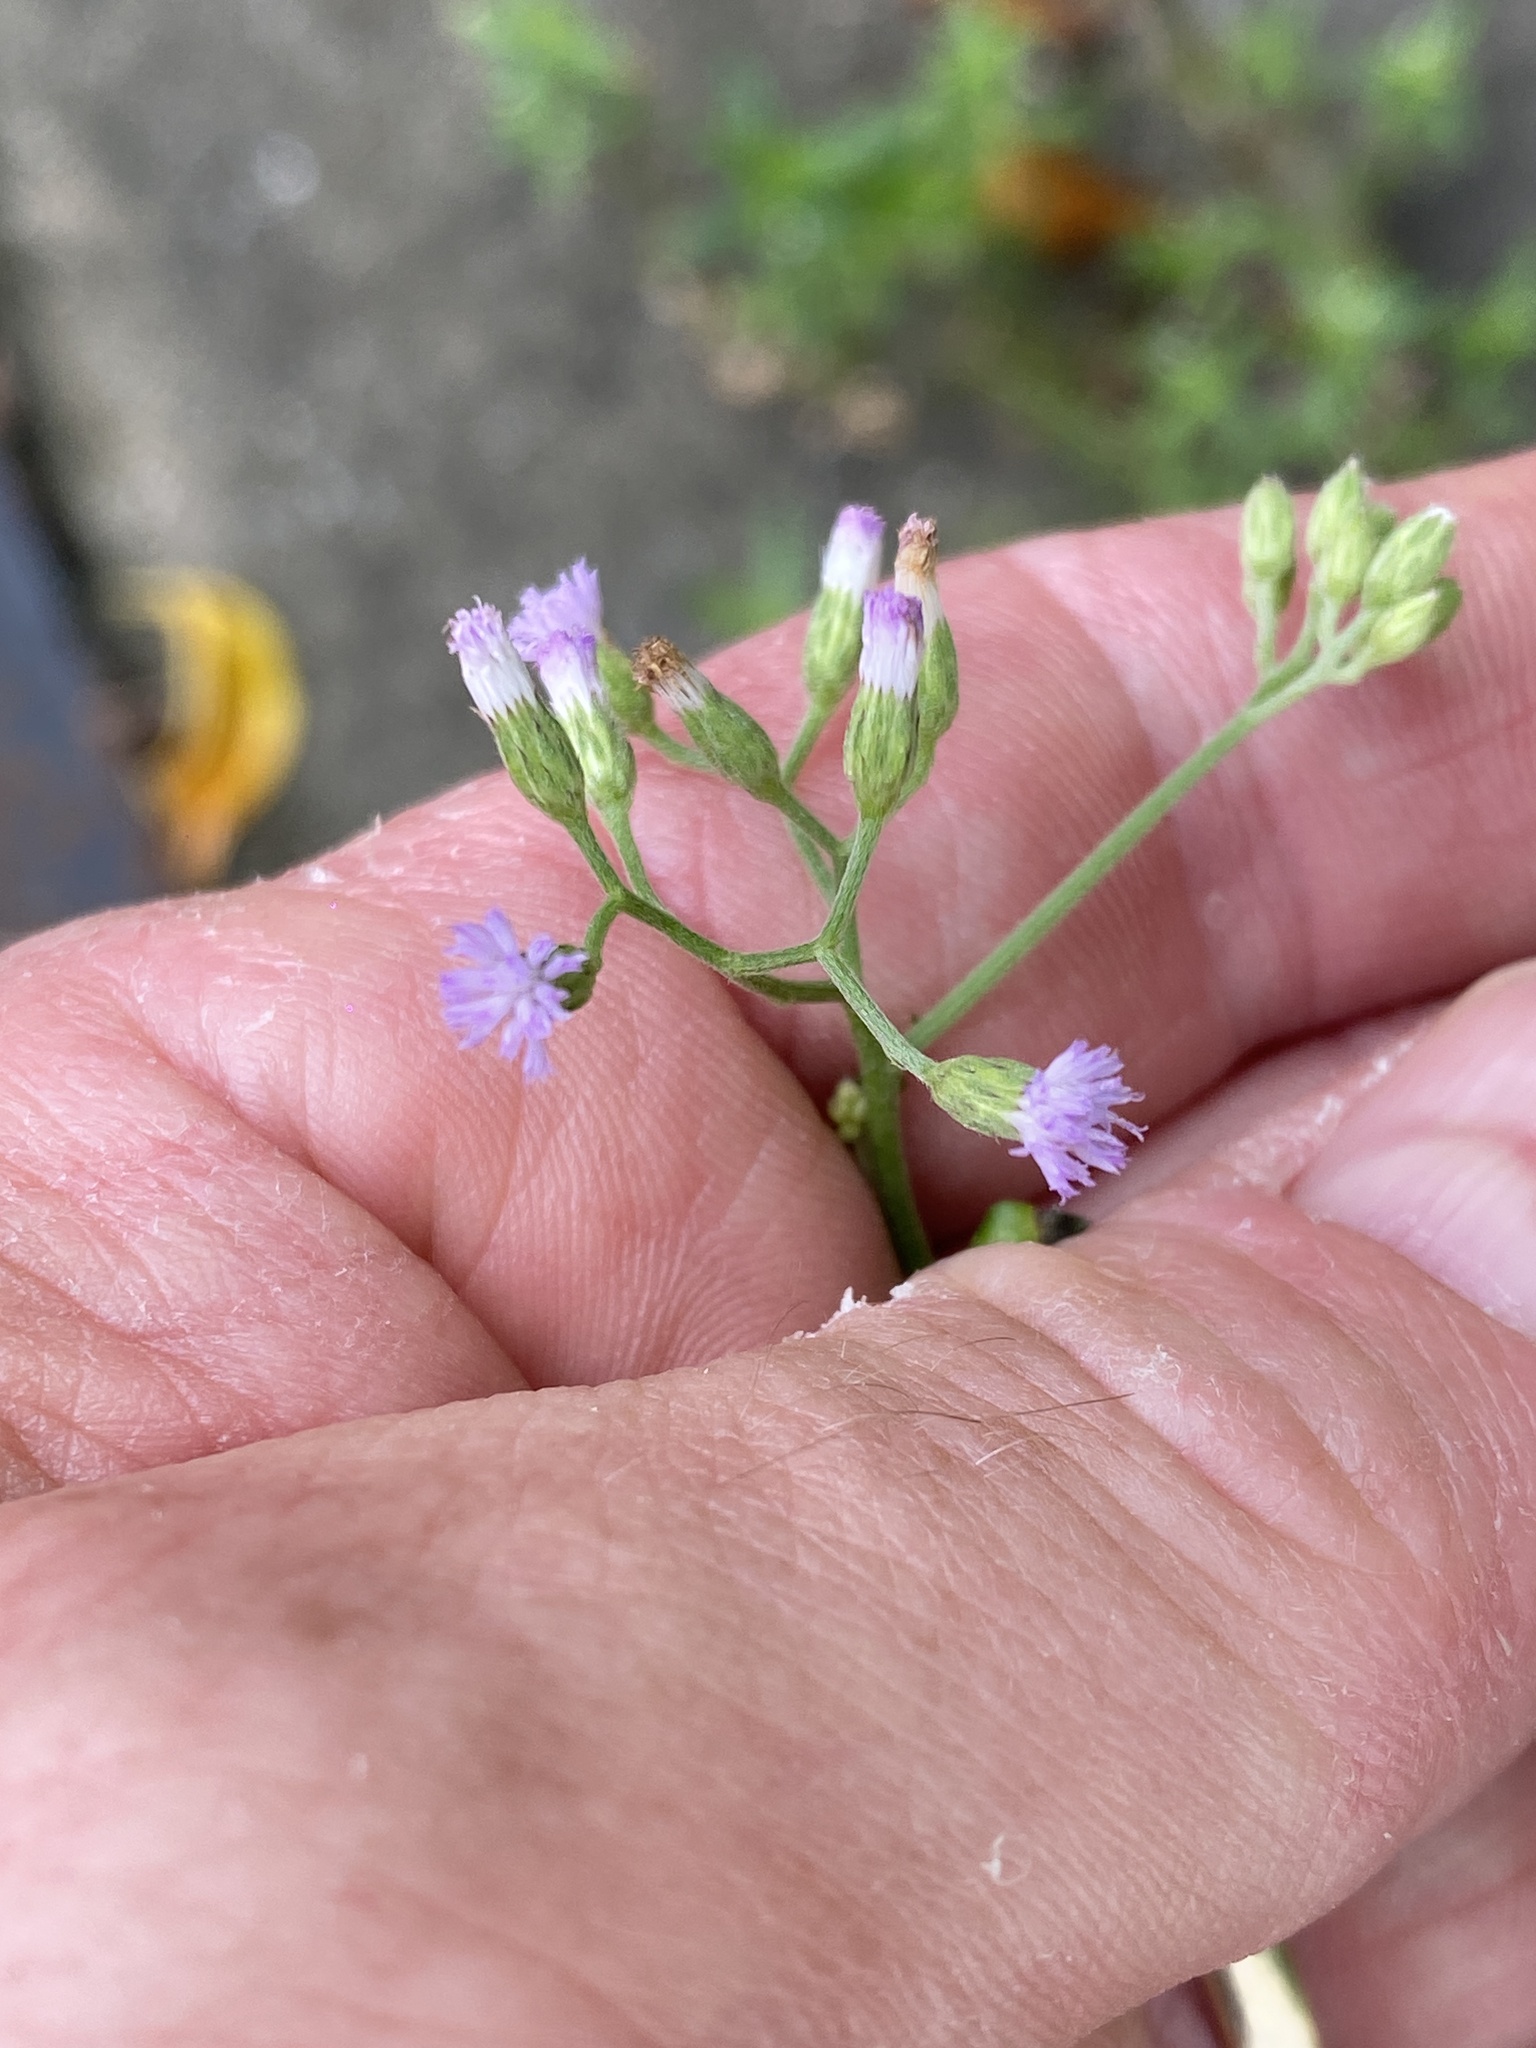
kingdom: Plantae
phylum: Tracheophyta
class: Magnoliopsida
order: Asterales
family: Asteraceae
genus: Cyanthillium
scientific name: Cyanthillium cinereum
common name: Little ironweed
